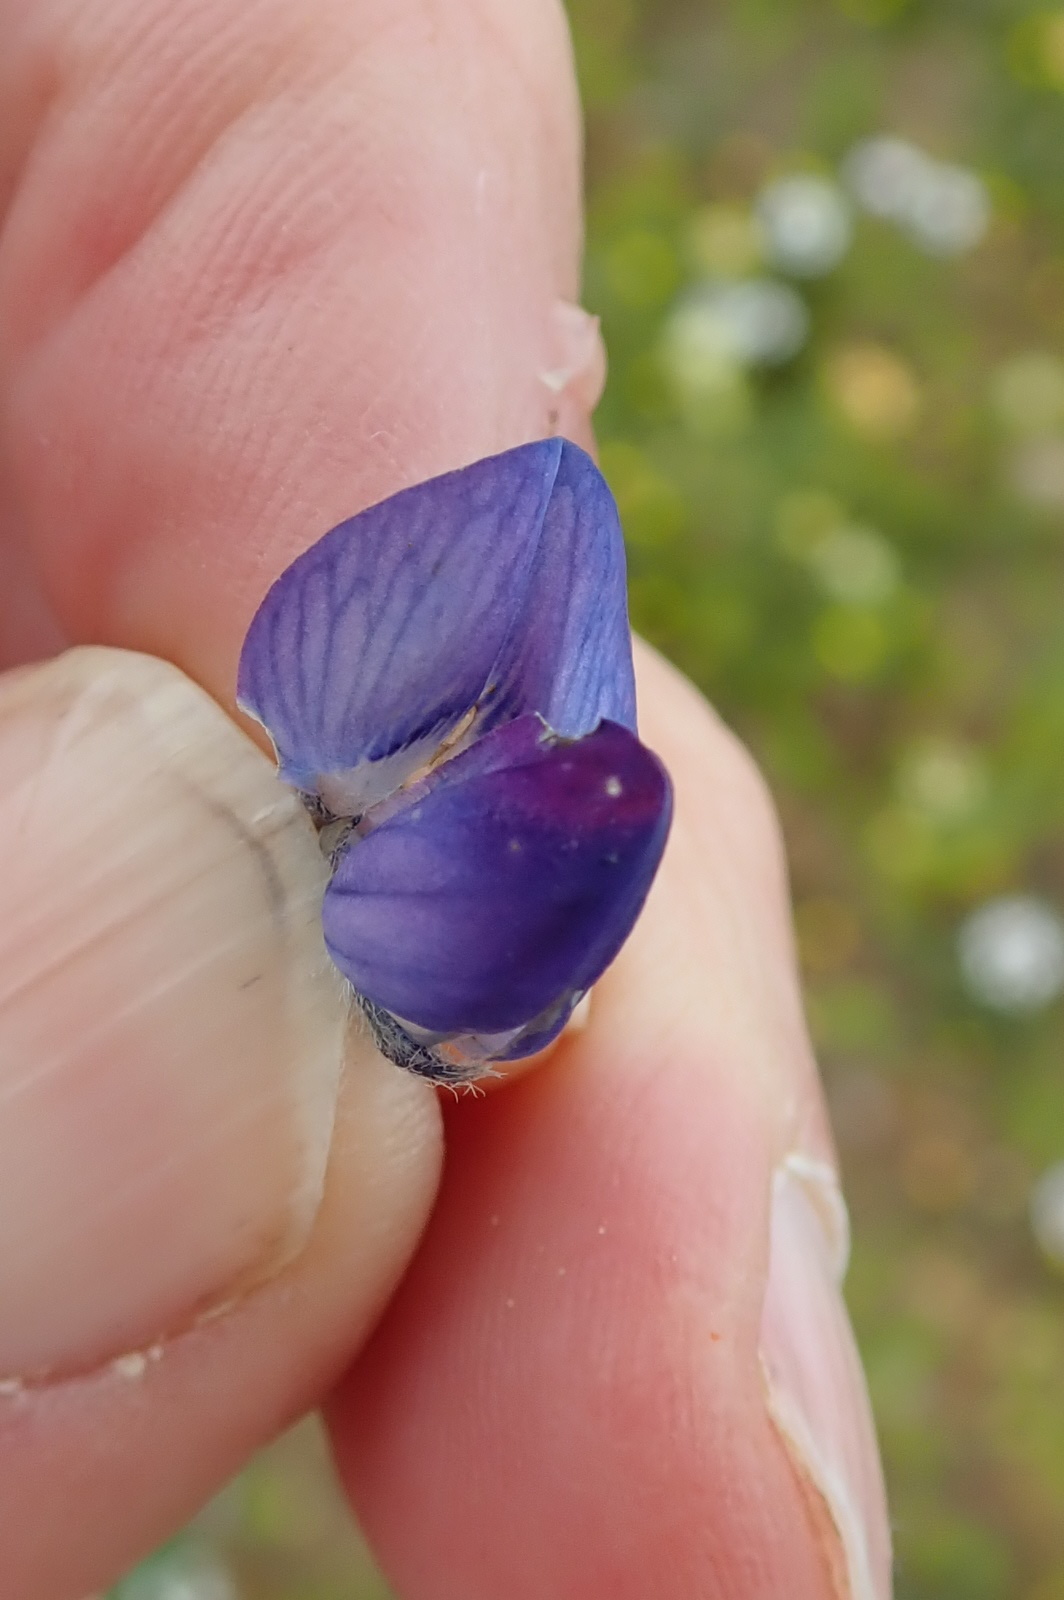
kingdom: Plantae
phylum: Tracheophyta
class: Magnoliopsida
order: Fabales
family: Fabaceae
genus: Lupinus
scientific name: Lupinus angustifolius
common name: Narrow-leaved lupin
